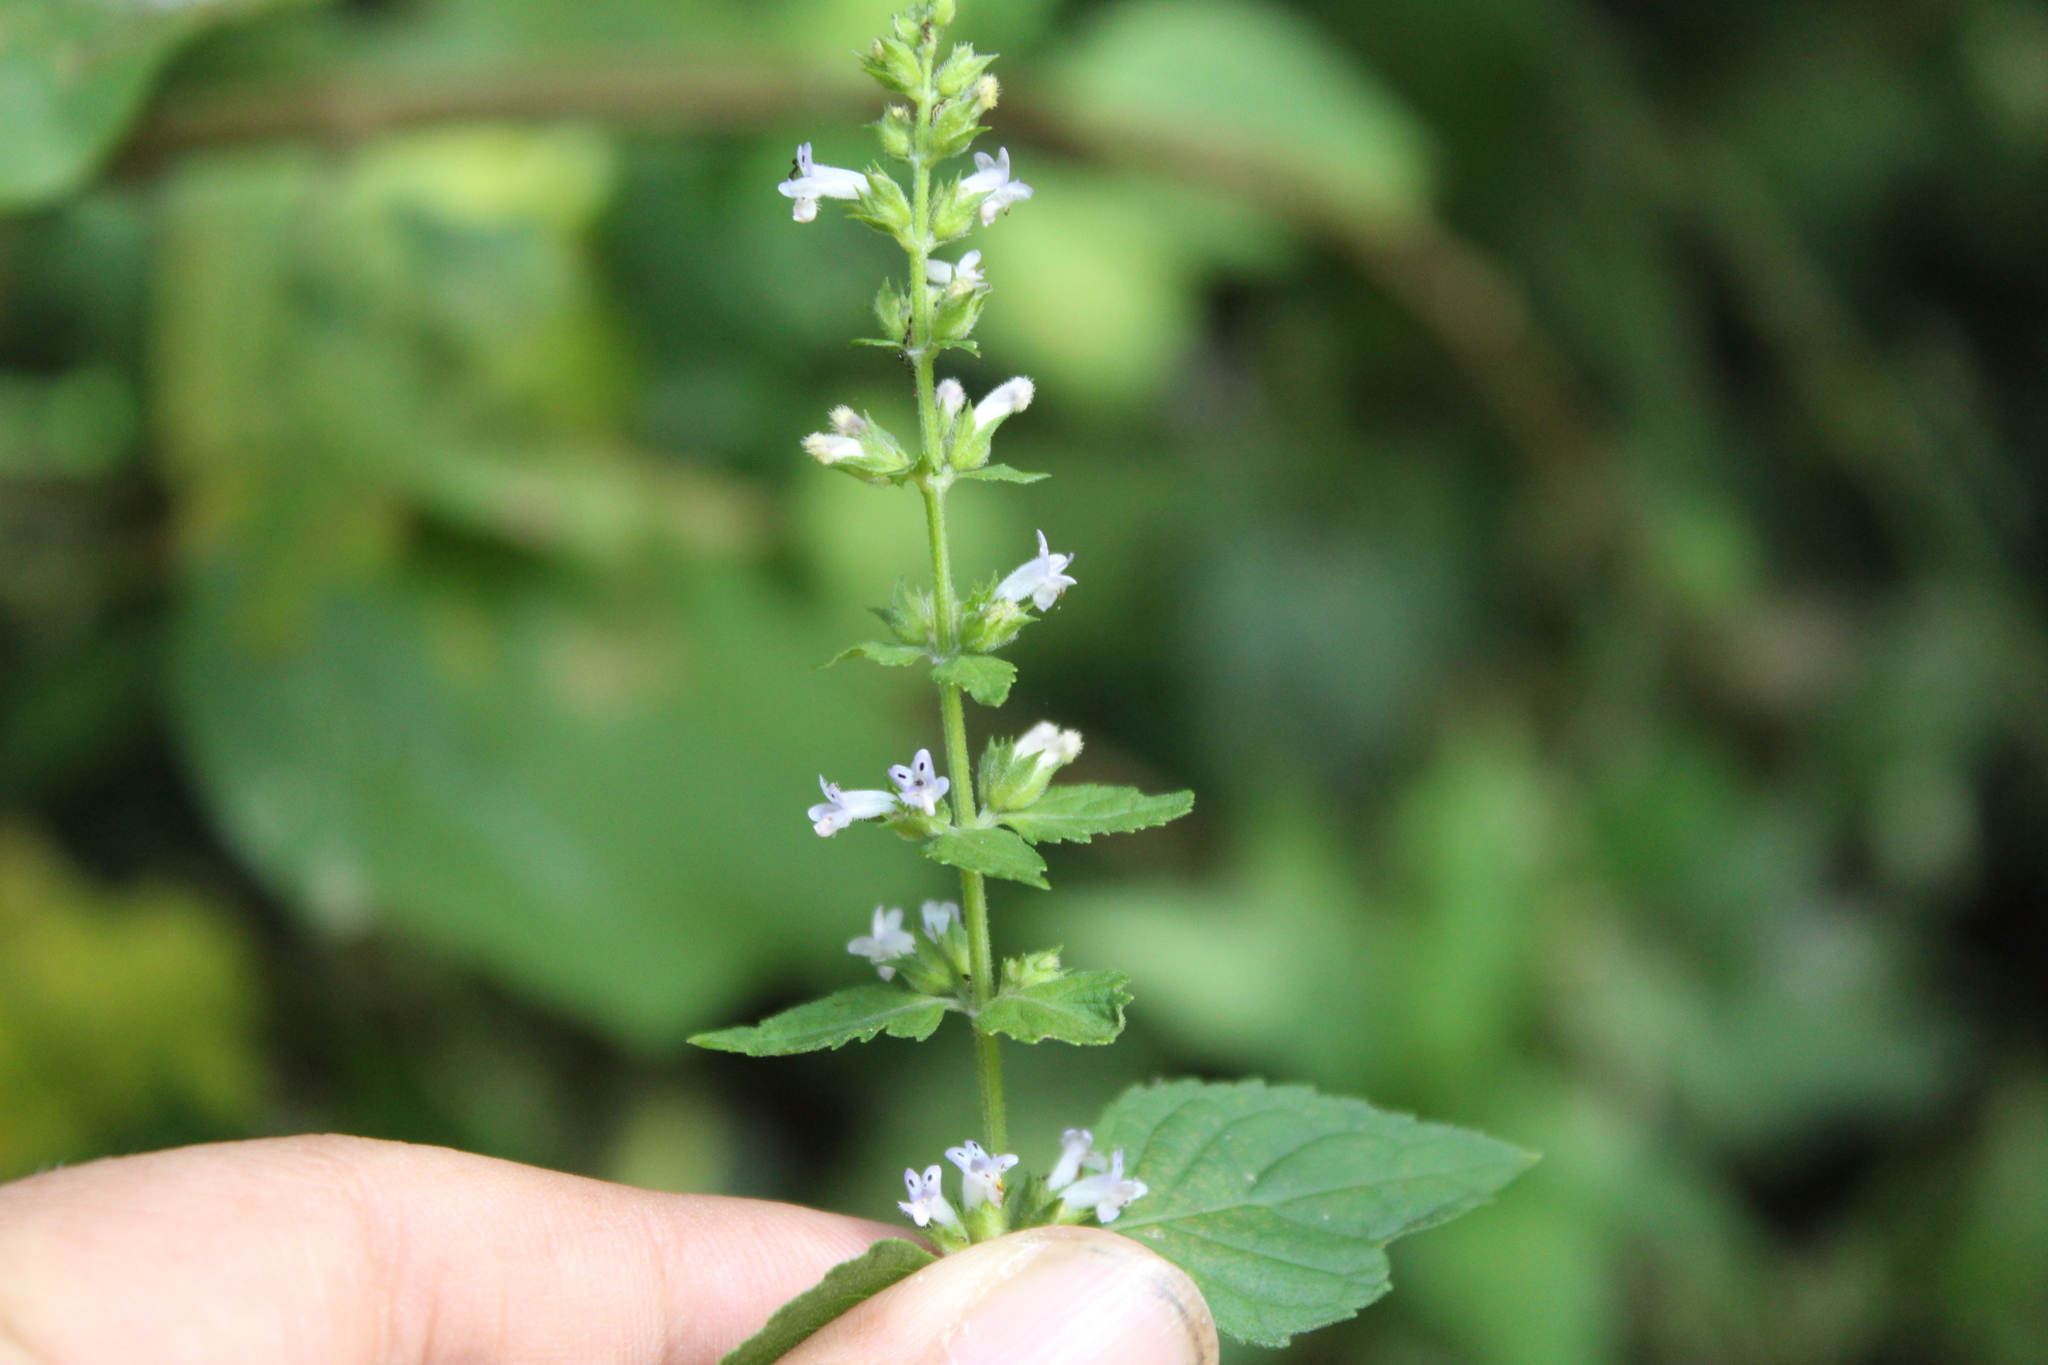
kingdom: Plantae
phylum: Tracheophyta
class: Magnoliopsida
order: Lamiales
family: Lamiaceae
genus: Cantinoa
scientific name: Cantinoa mutabilis
